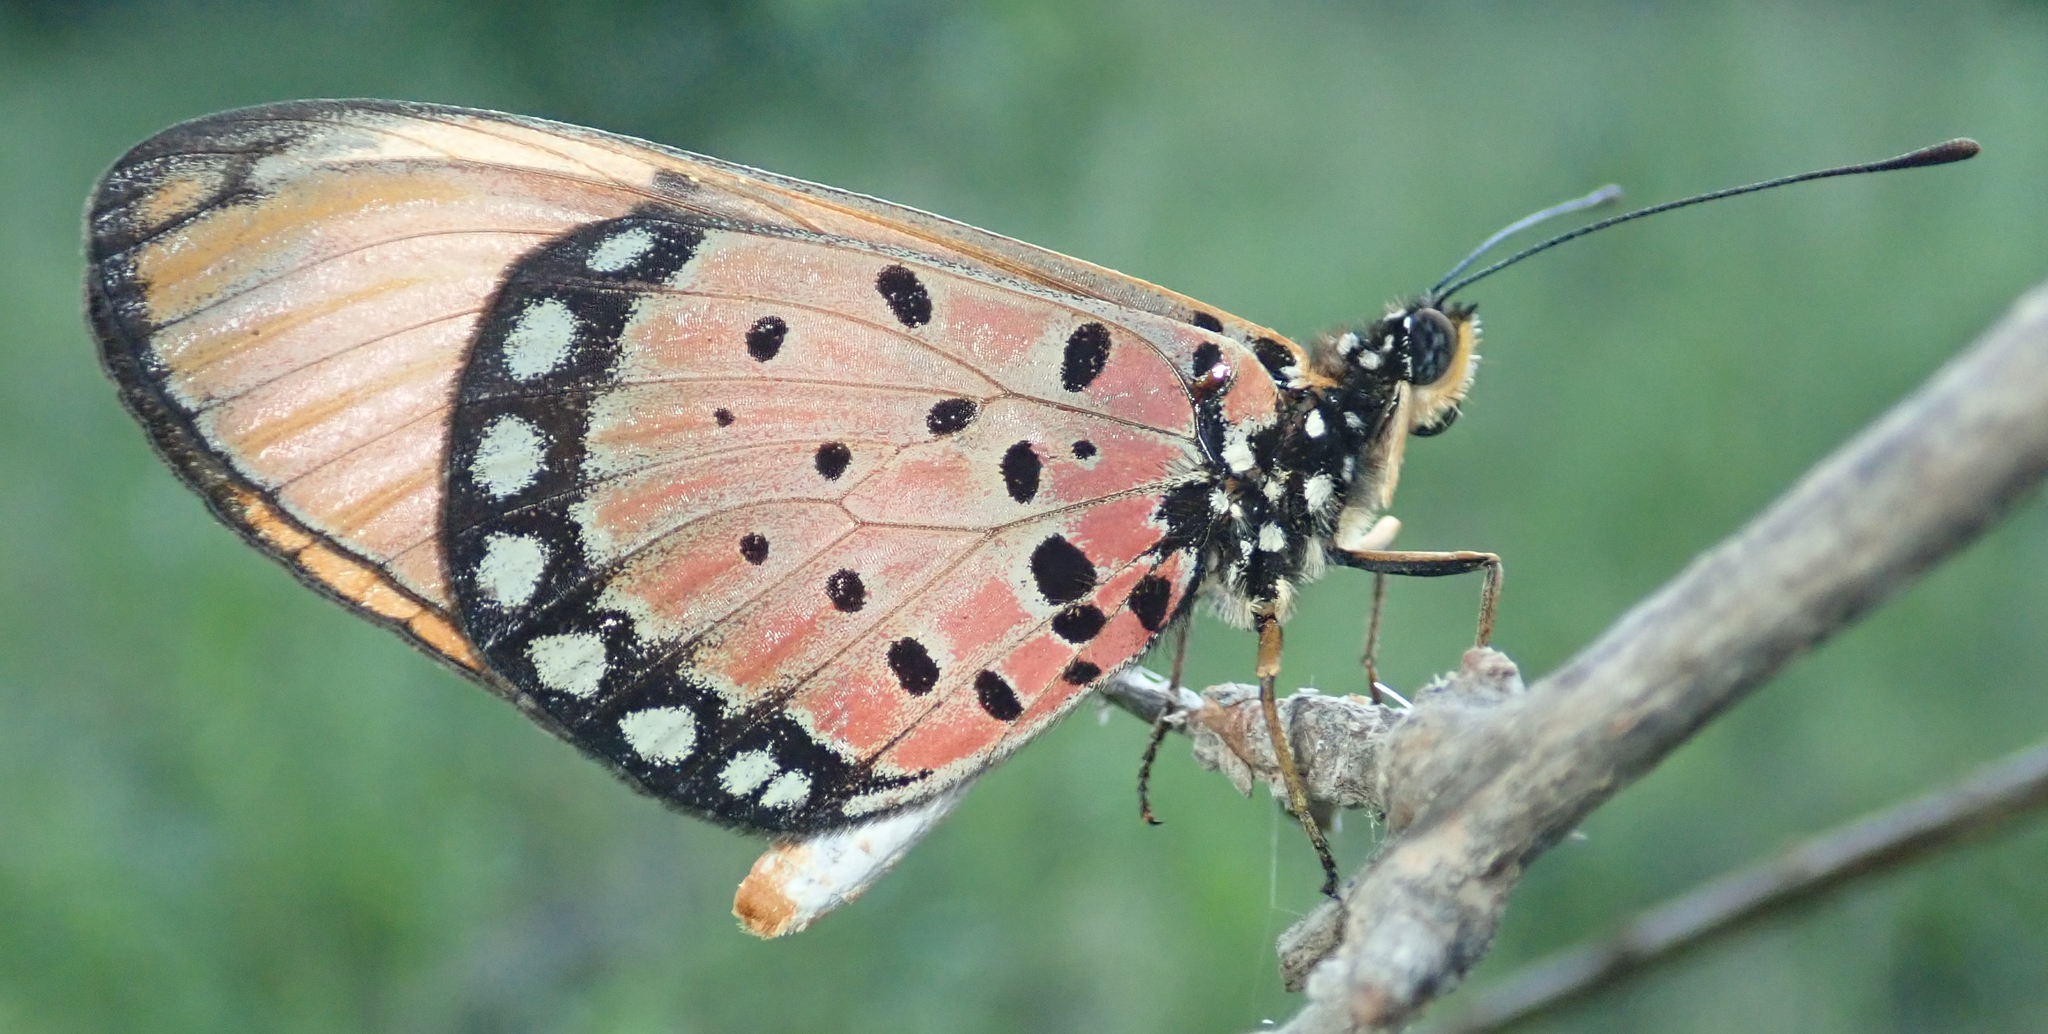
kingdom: Animalia
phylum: Arthropoda
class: Insecta
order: Lepidoptera
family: Nymphalidae
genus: Stephenia
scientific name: Stephenia
